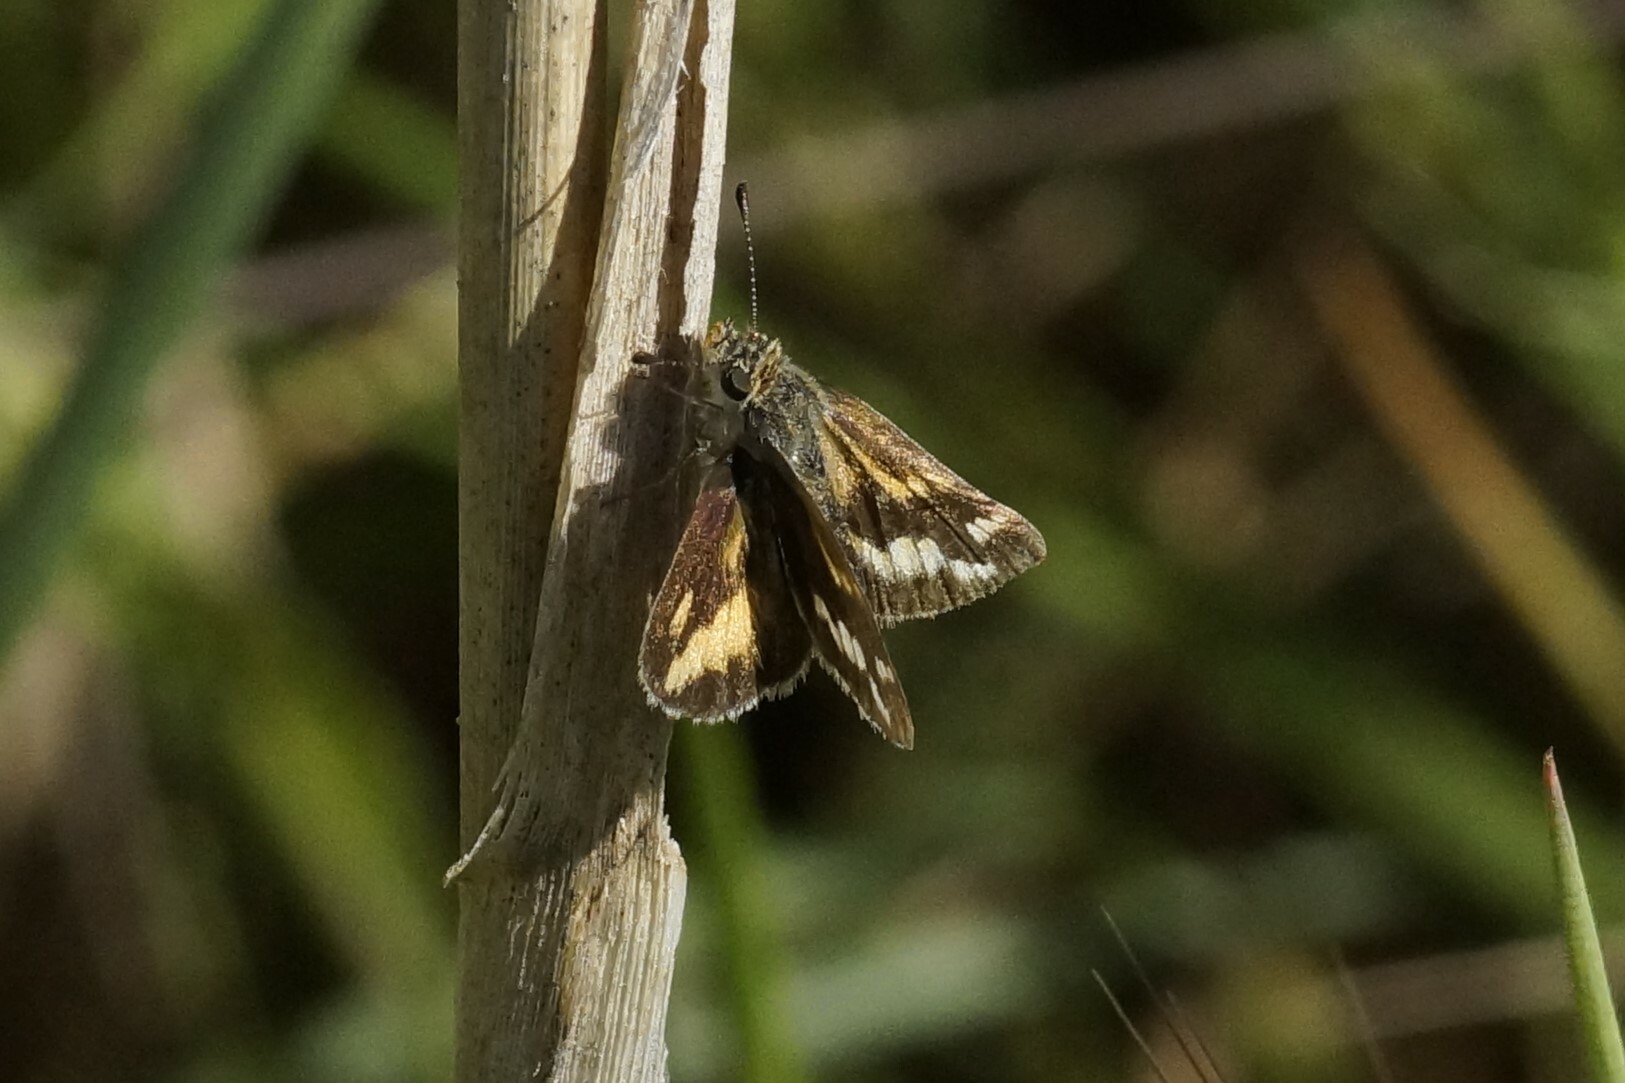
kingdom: Animalia
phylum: Arthropoda
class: Insecta
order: Lepidoptera
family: Hesperiidae
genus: Taractrocera
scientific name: Taractrocera papyria
